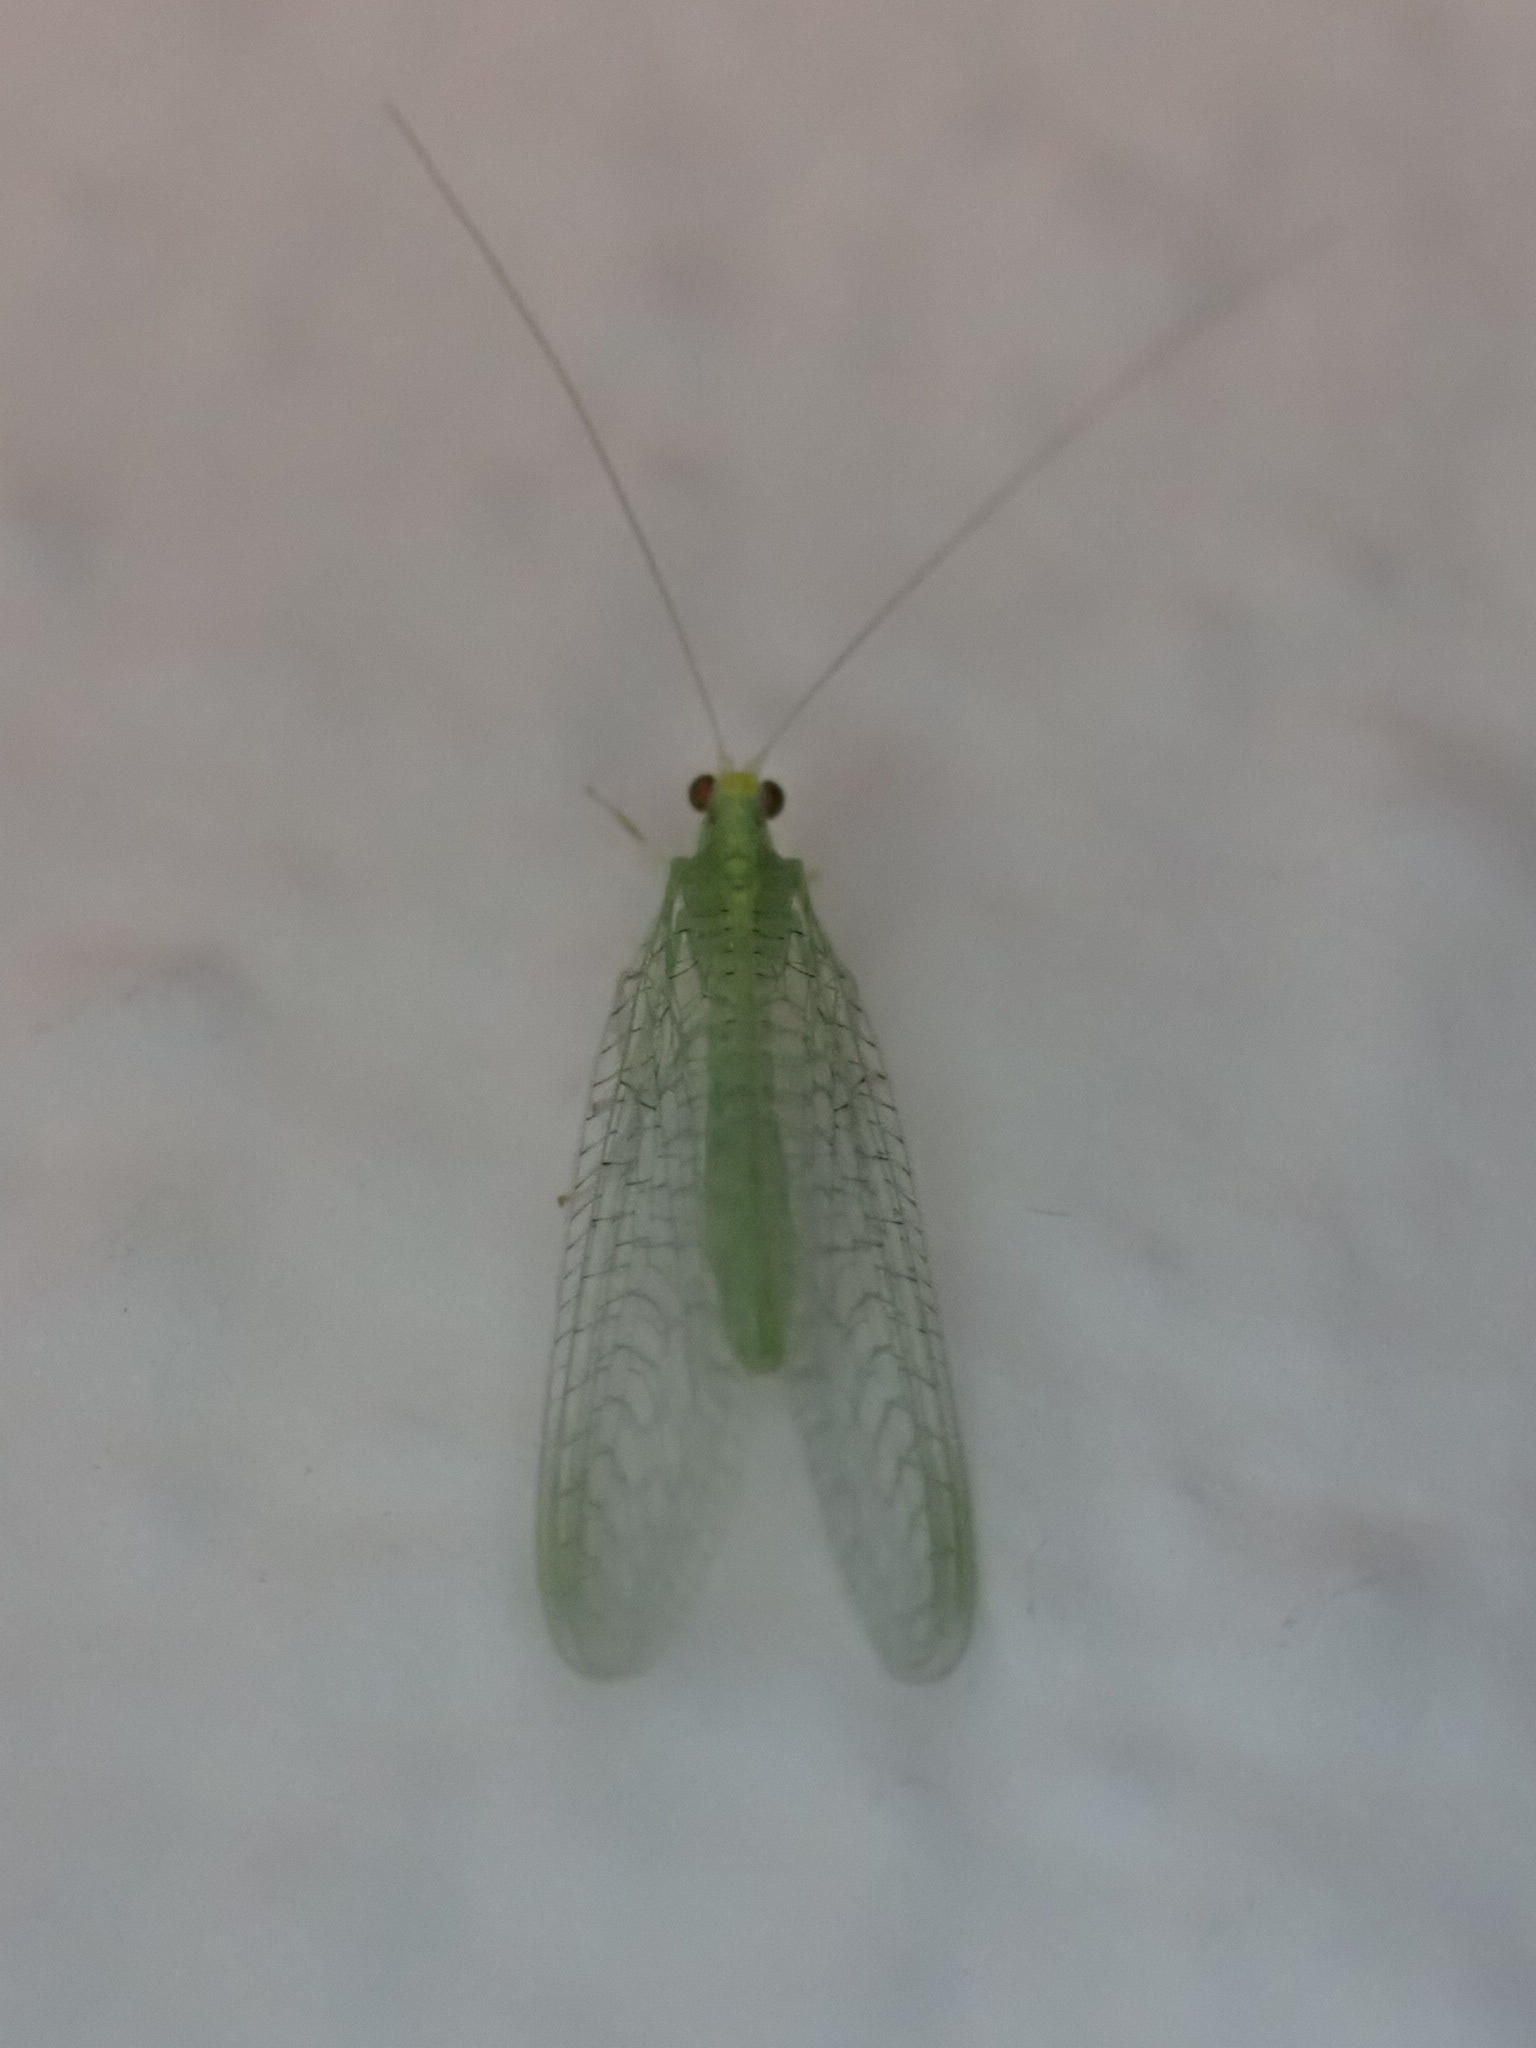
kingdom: Animalia
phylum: Arthropoda
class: Insecta
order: Neuroptera
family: Chrysopidae
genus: Pseudomallada
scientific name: Pseudomallada flavifrons
